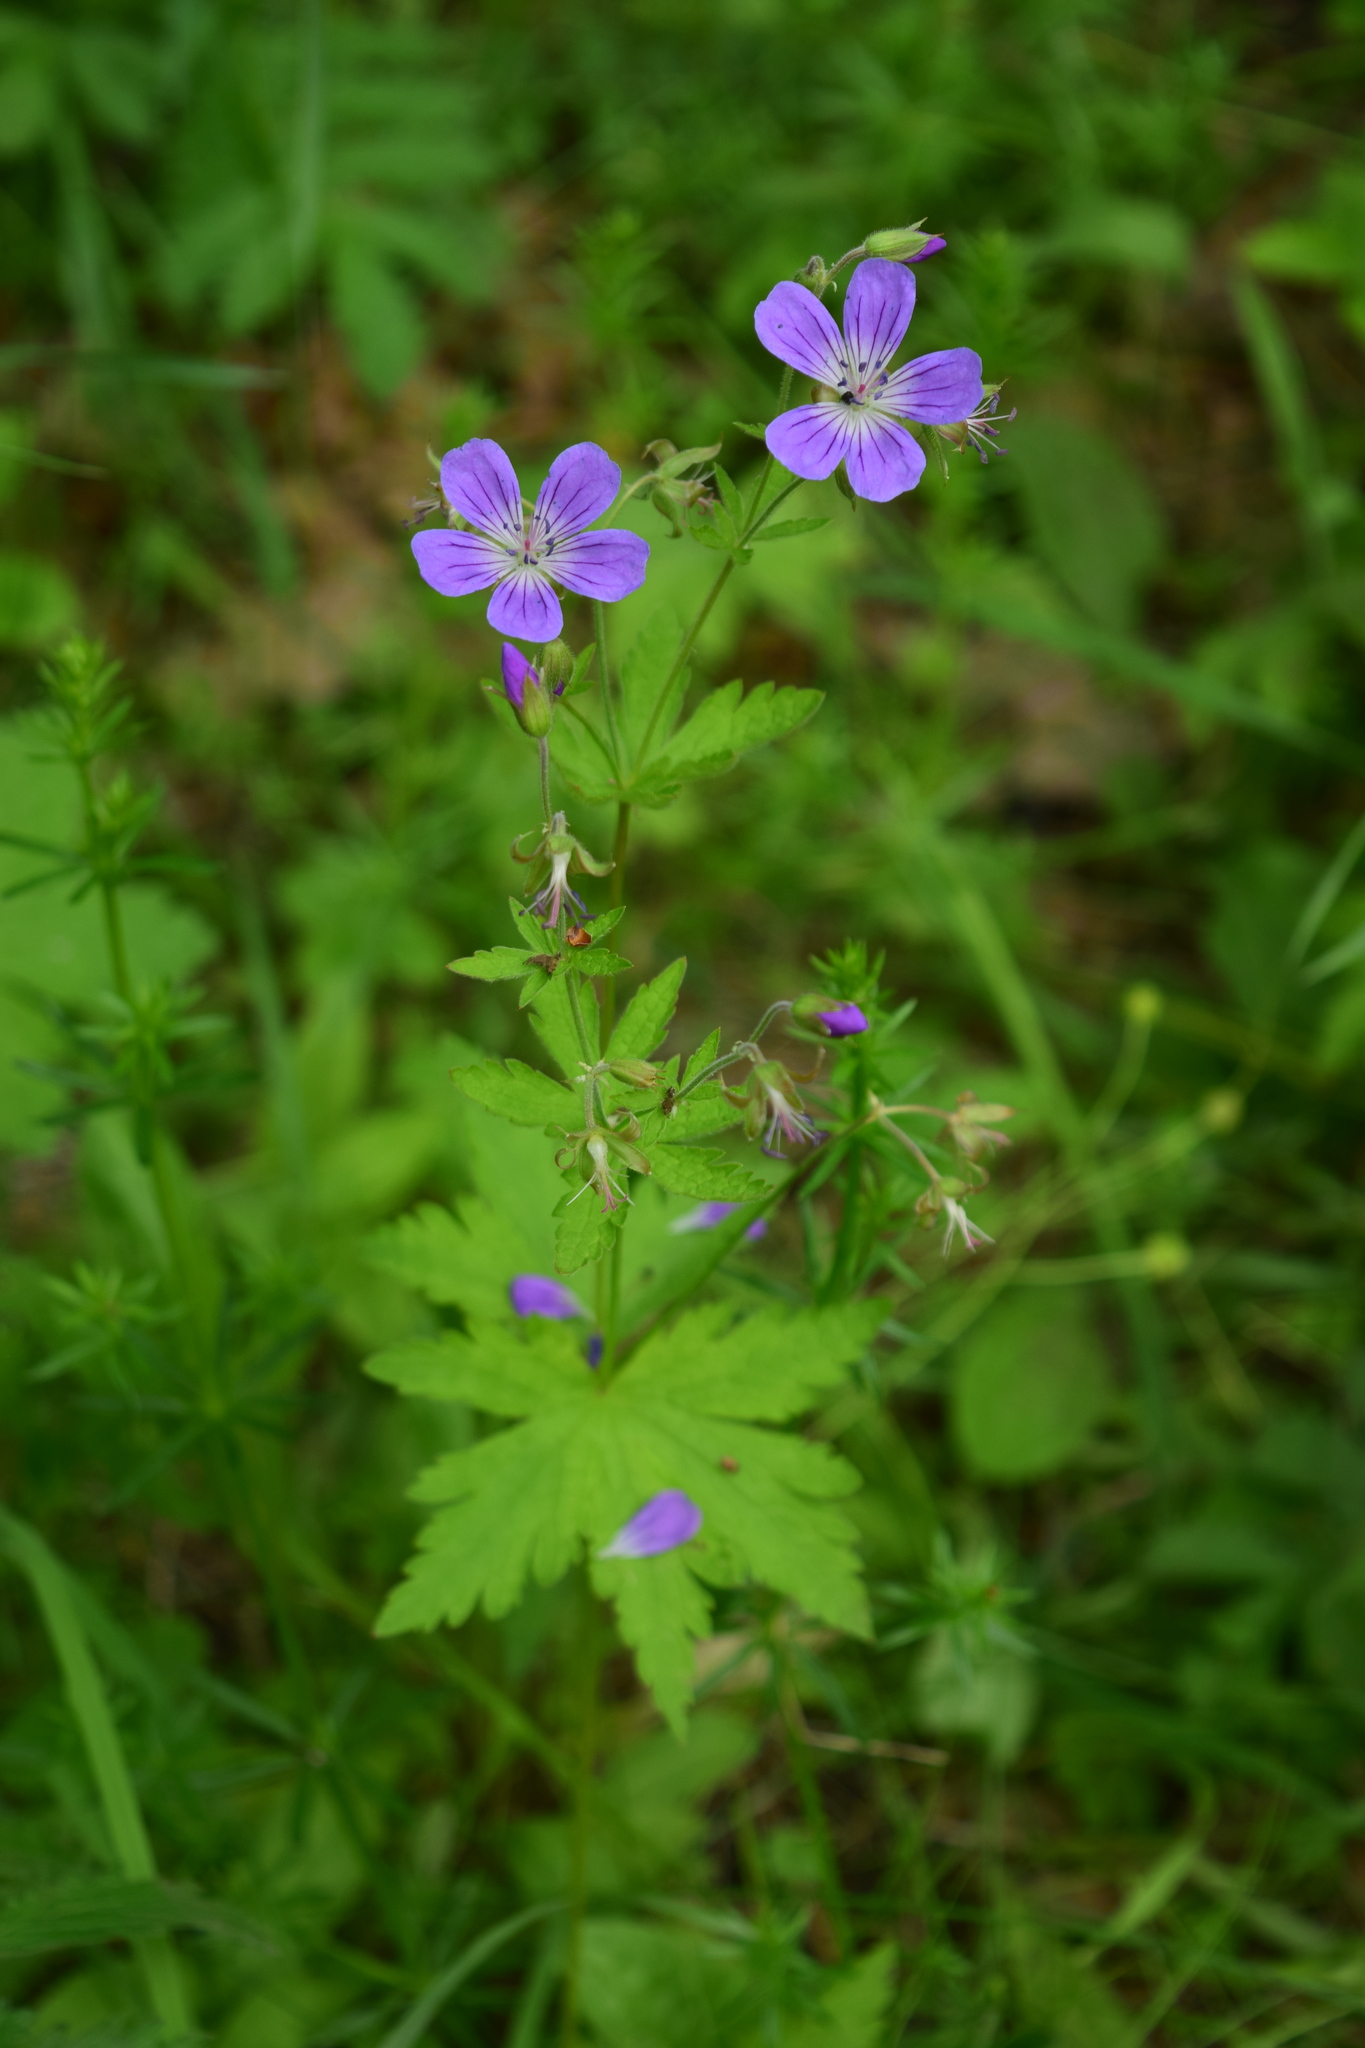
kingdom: Plantae
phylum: Tracheophyta
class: Magnoliopsida
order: Geraniales
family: Geraniaceae
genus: Geranium
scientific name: Geranium sylvaticum
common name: Wood crane's-bill
